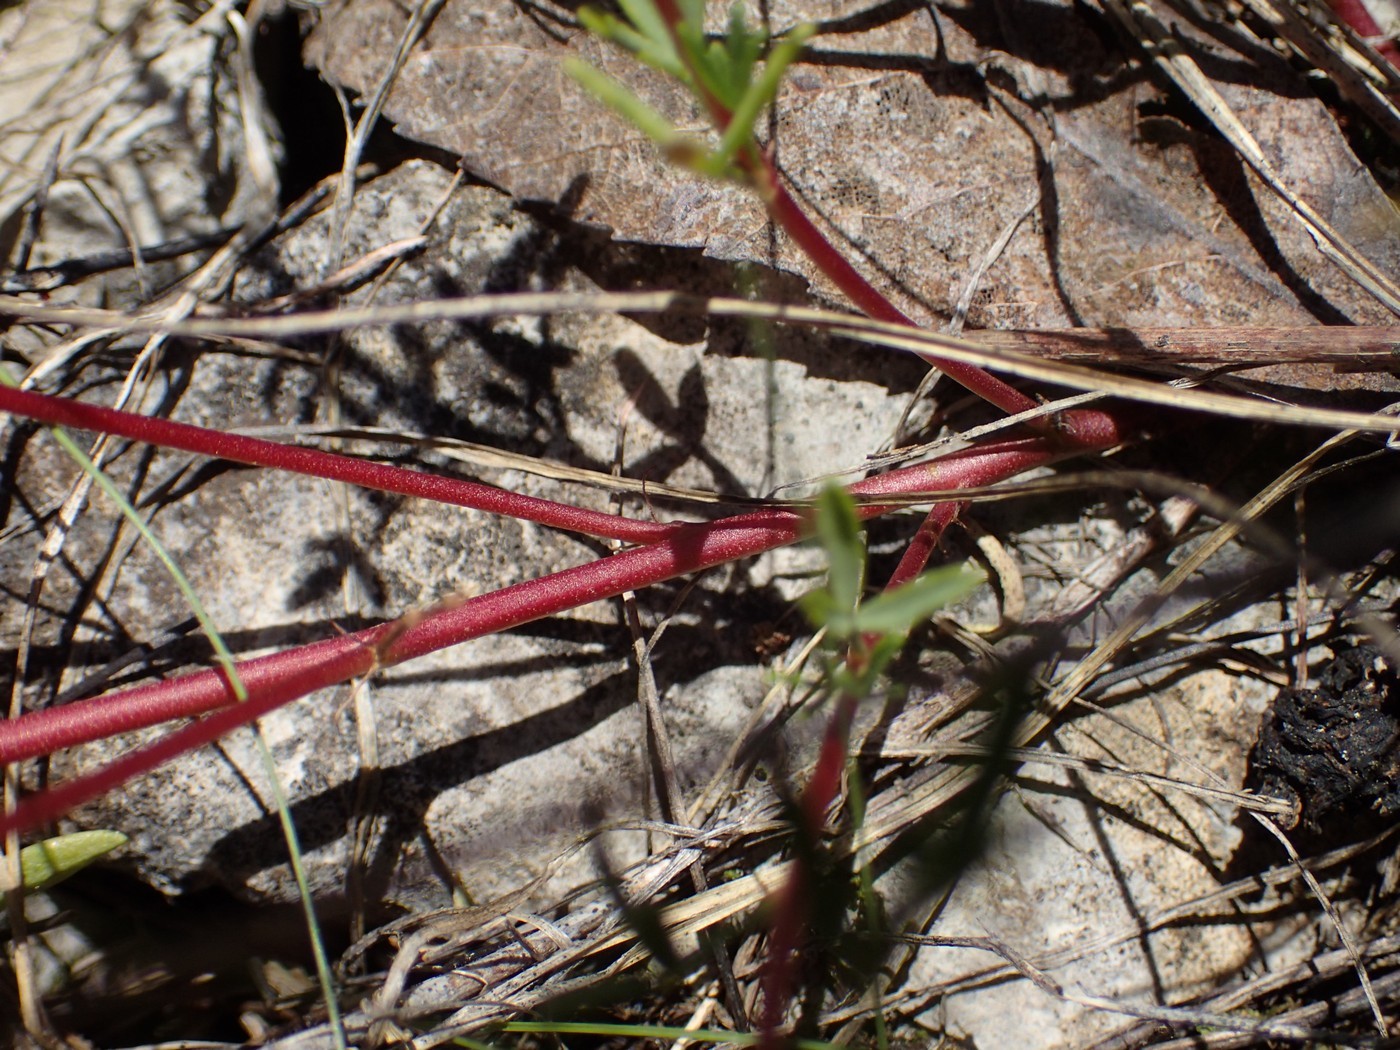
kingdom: Plantae
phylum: Tracheophyta
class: Magnoliopsida
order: Fabales
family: Fabaceae
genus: Dalea
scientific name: Dalea gattingeri
